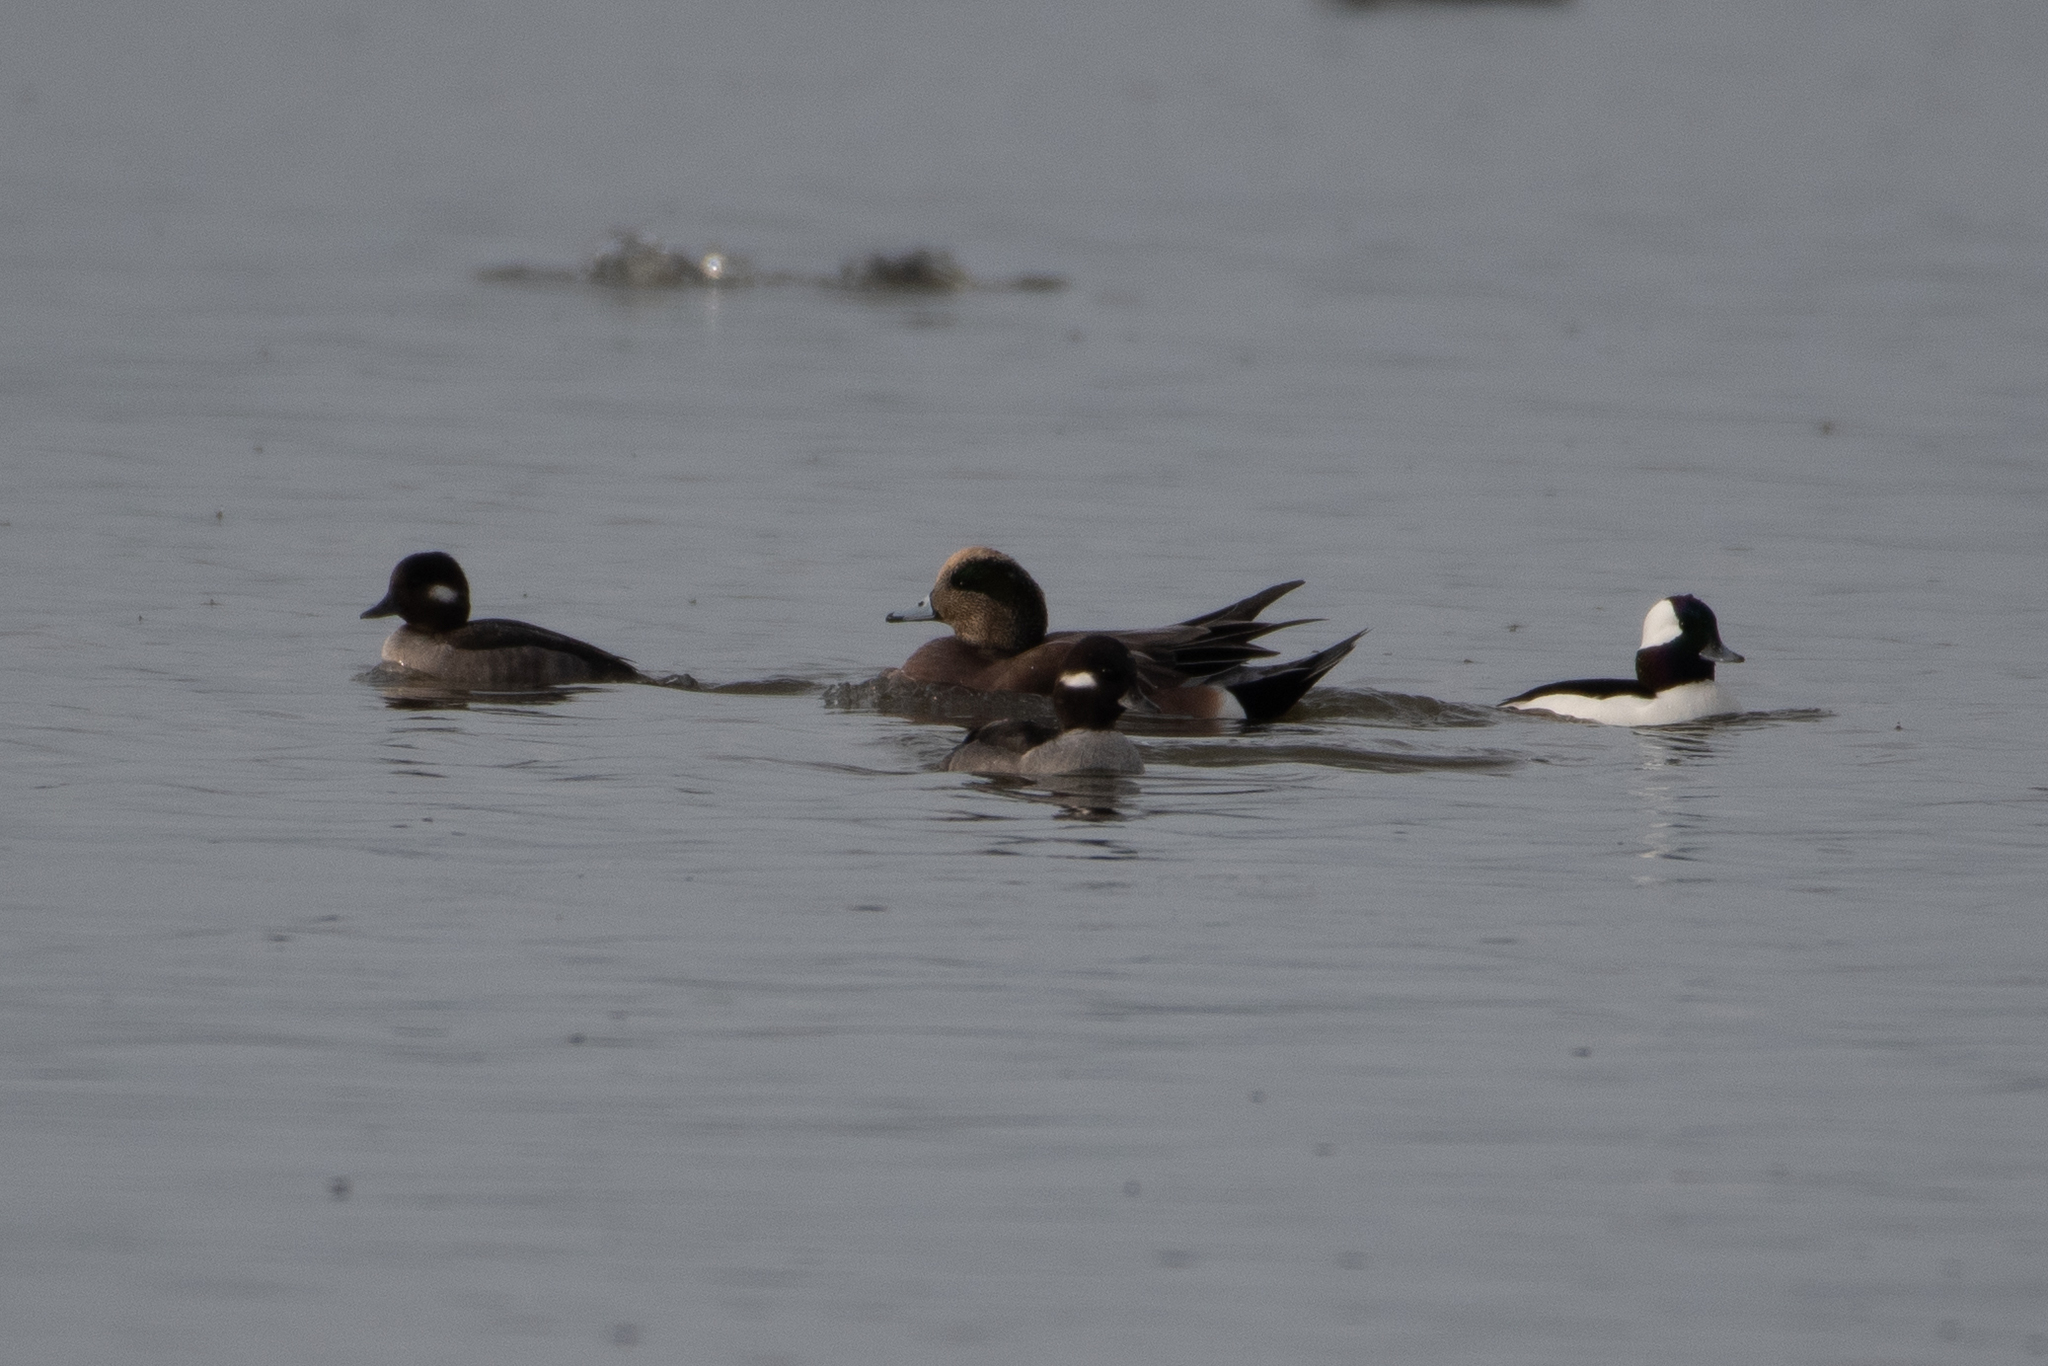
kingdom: Animalia
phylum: Chordata
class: Aves
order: Anseriformes
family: Anatidae
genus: Bucephala
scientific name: Bucephala albeola
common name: Bufflehead
